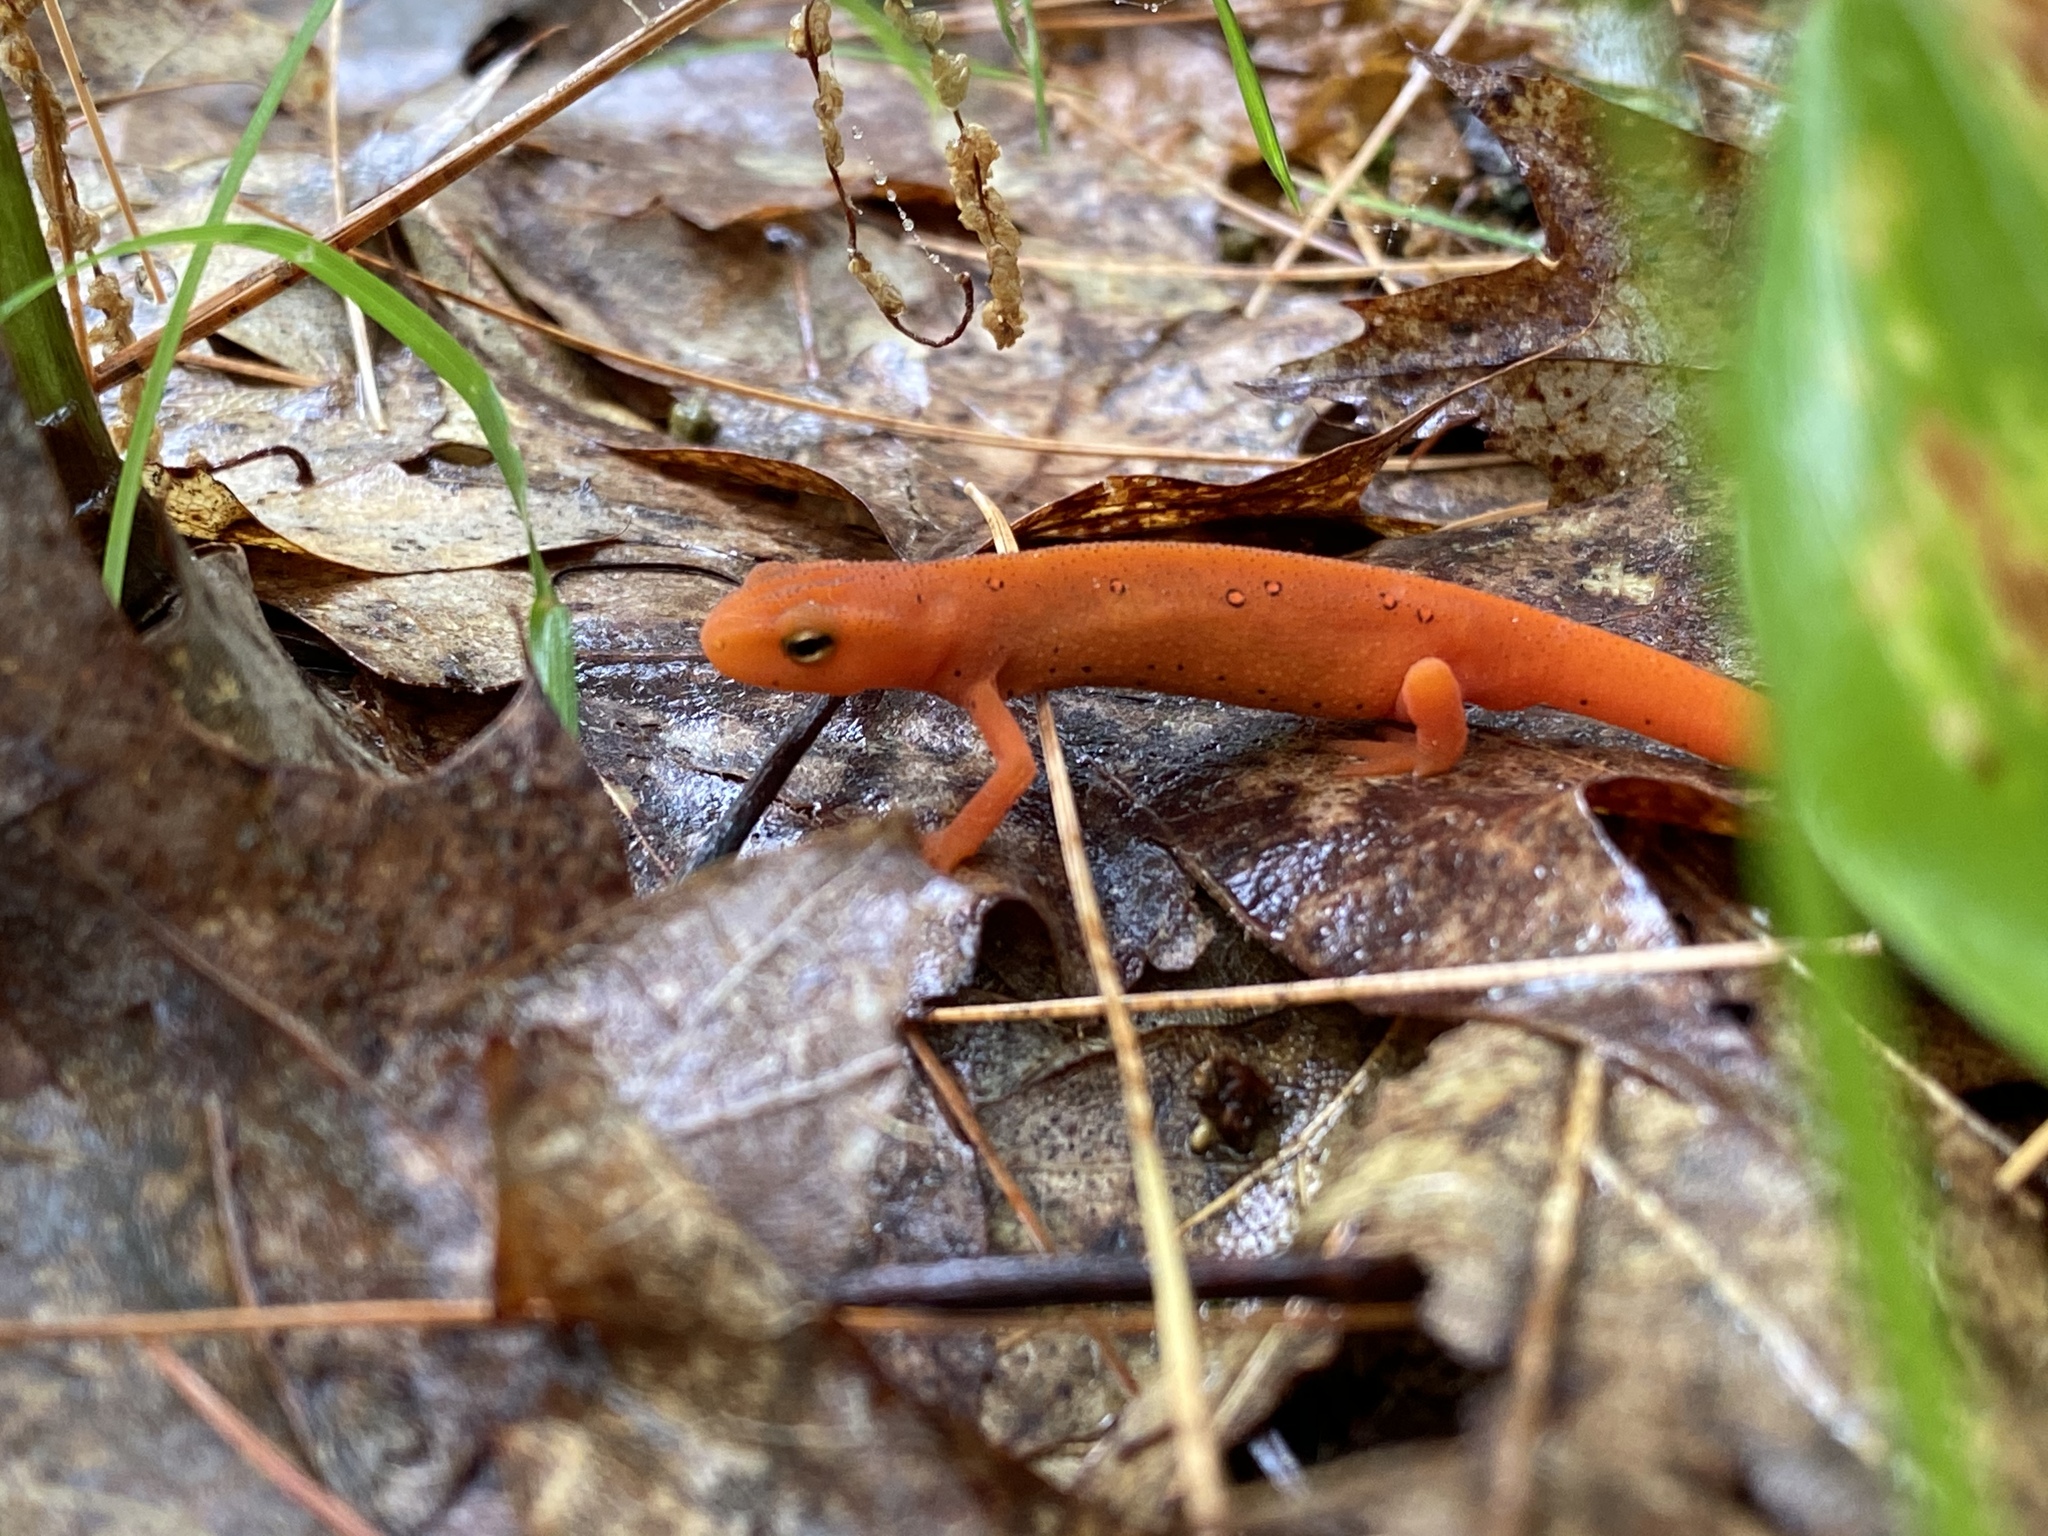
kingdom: Animalia
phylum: Chordata
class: Amphibia
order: Caudata
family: Salamandridae
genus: Notophthalmus
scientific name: Notophthalmus viridescens
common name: Eastern newt
